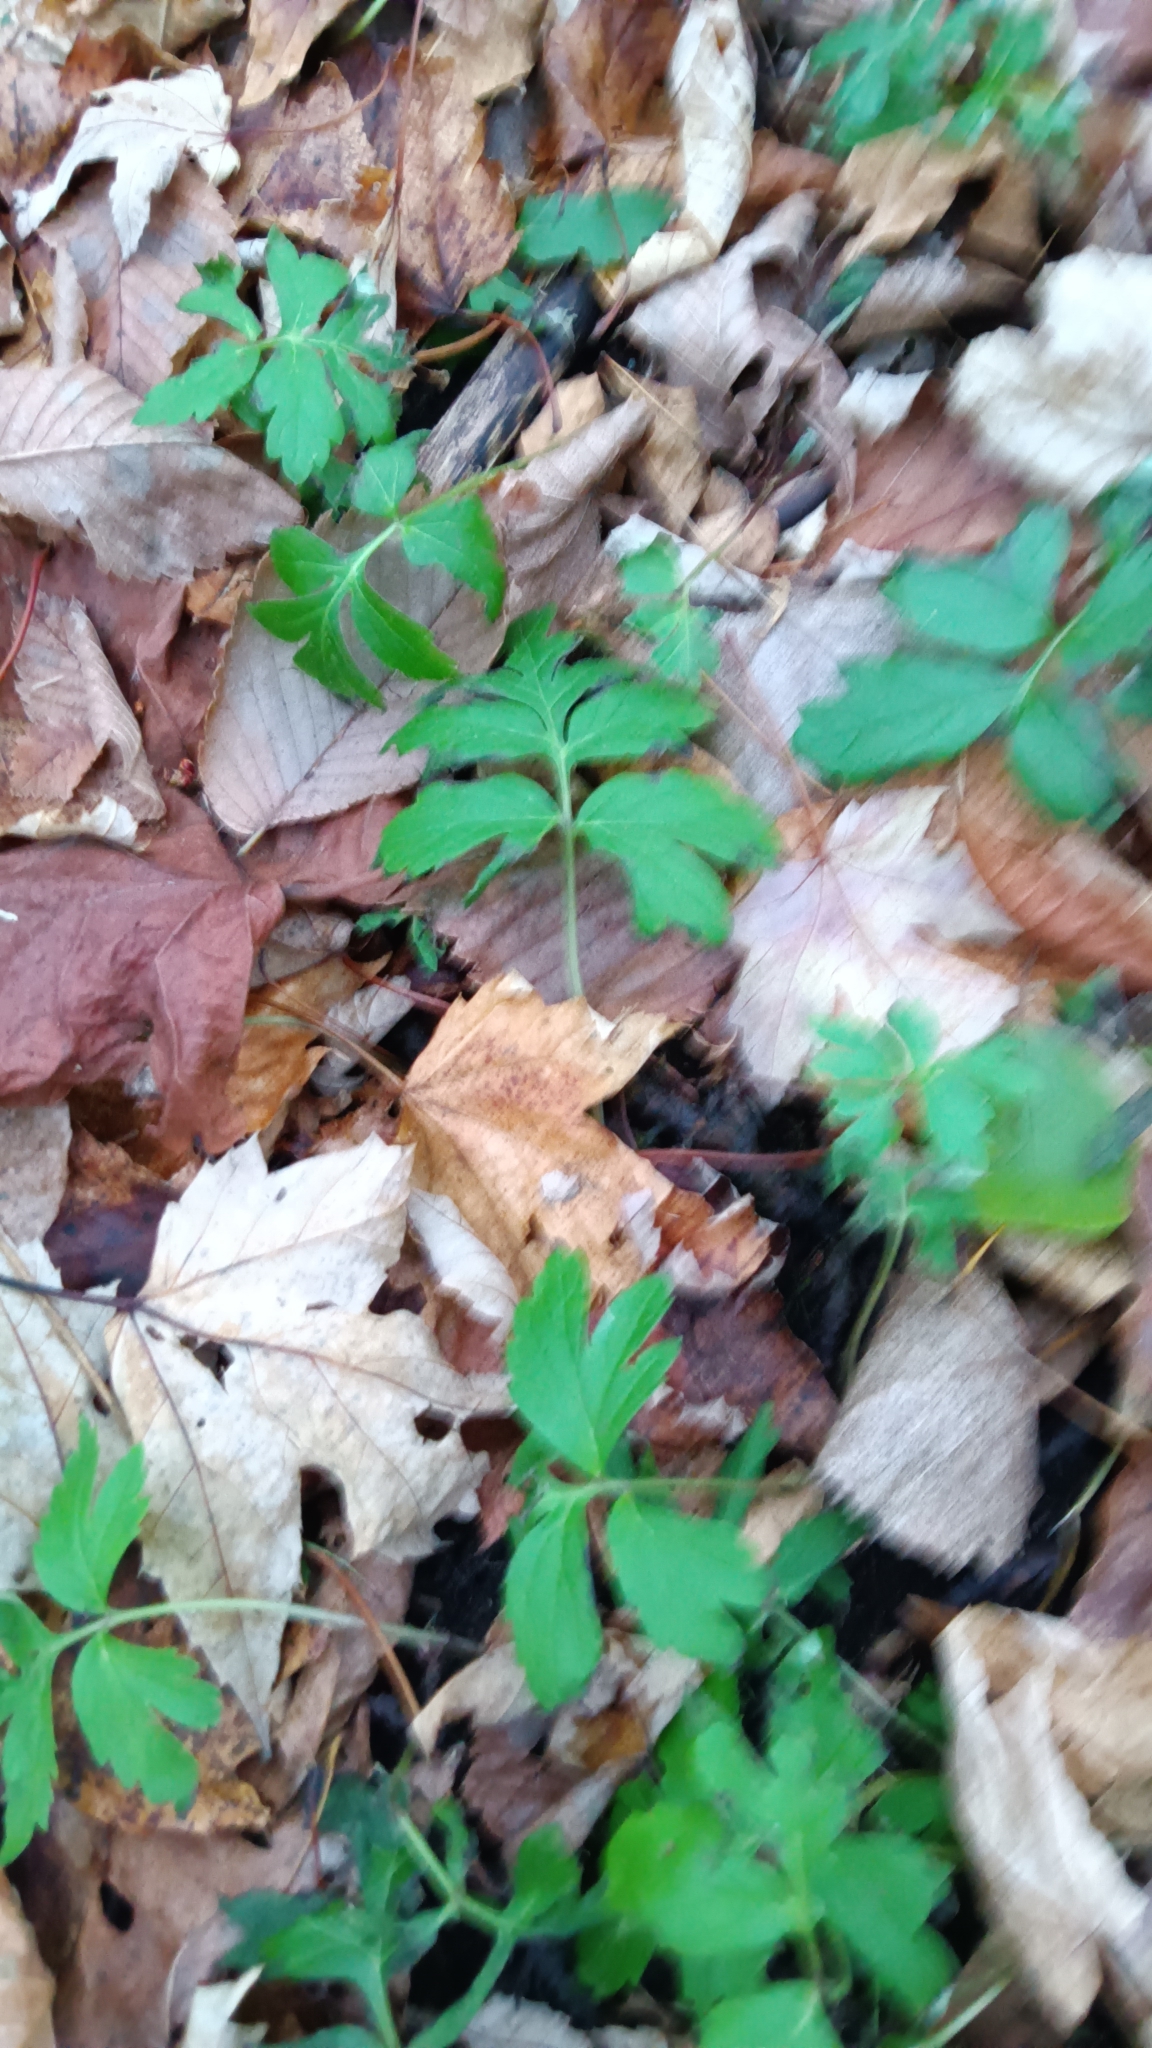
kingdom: Plantae
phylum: Tracheophyta
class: Magnoliopsida
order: Boraginales
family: Hydrophyllaceae
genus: Hydrophyllum
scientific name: Hydrophyllum virginianum
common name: Virginia waterleaf
